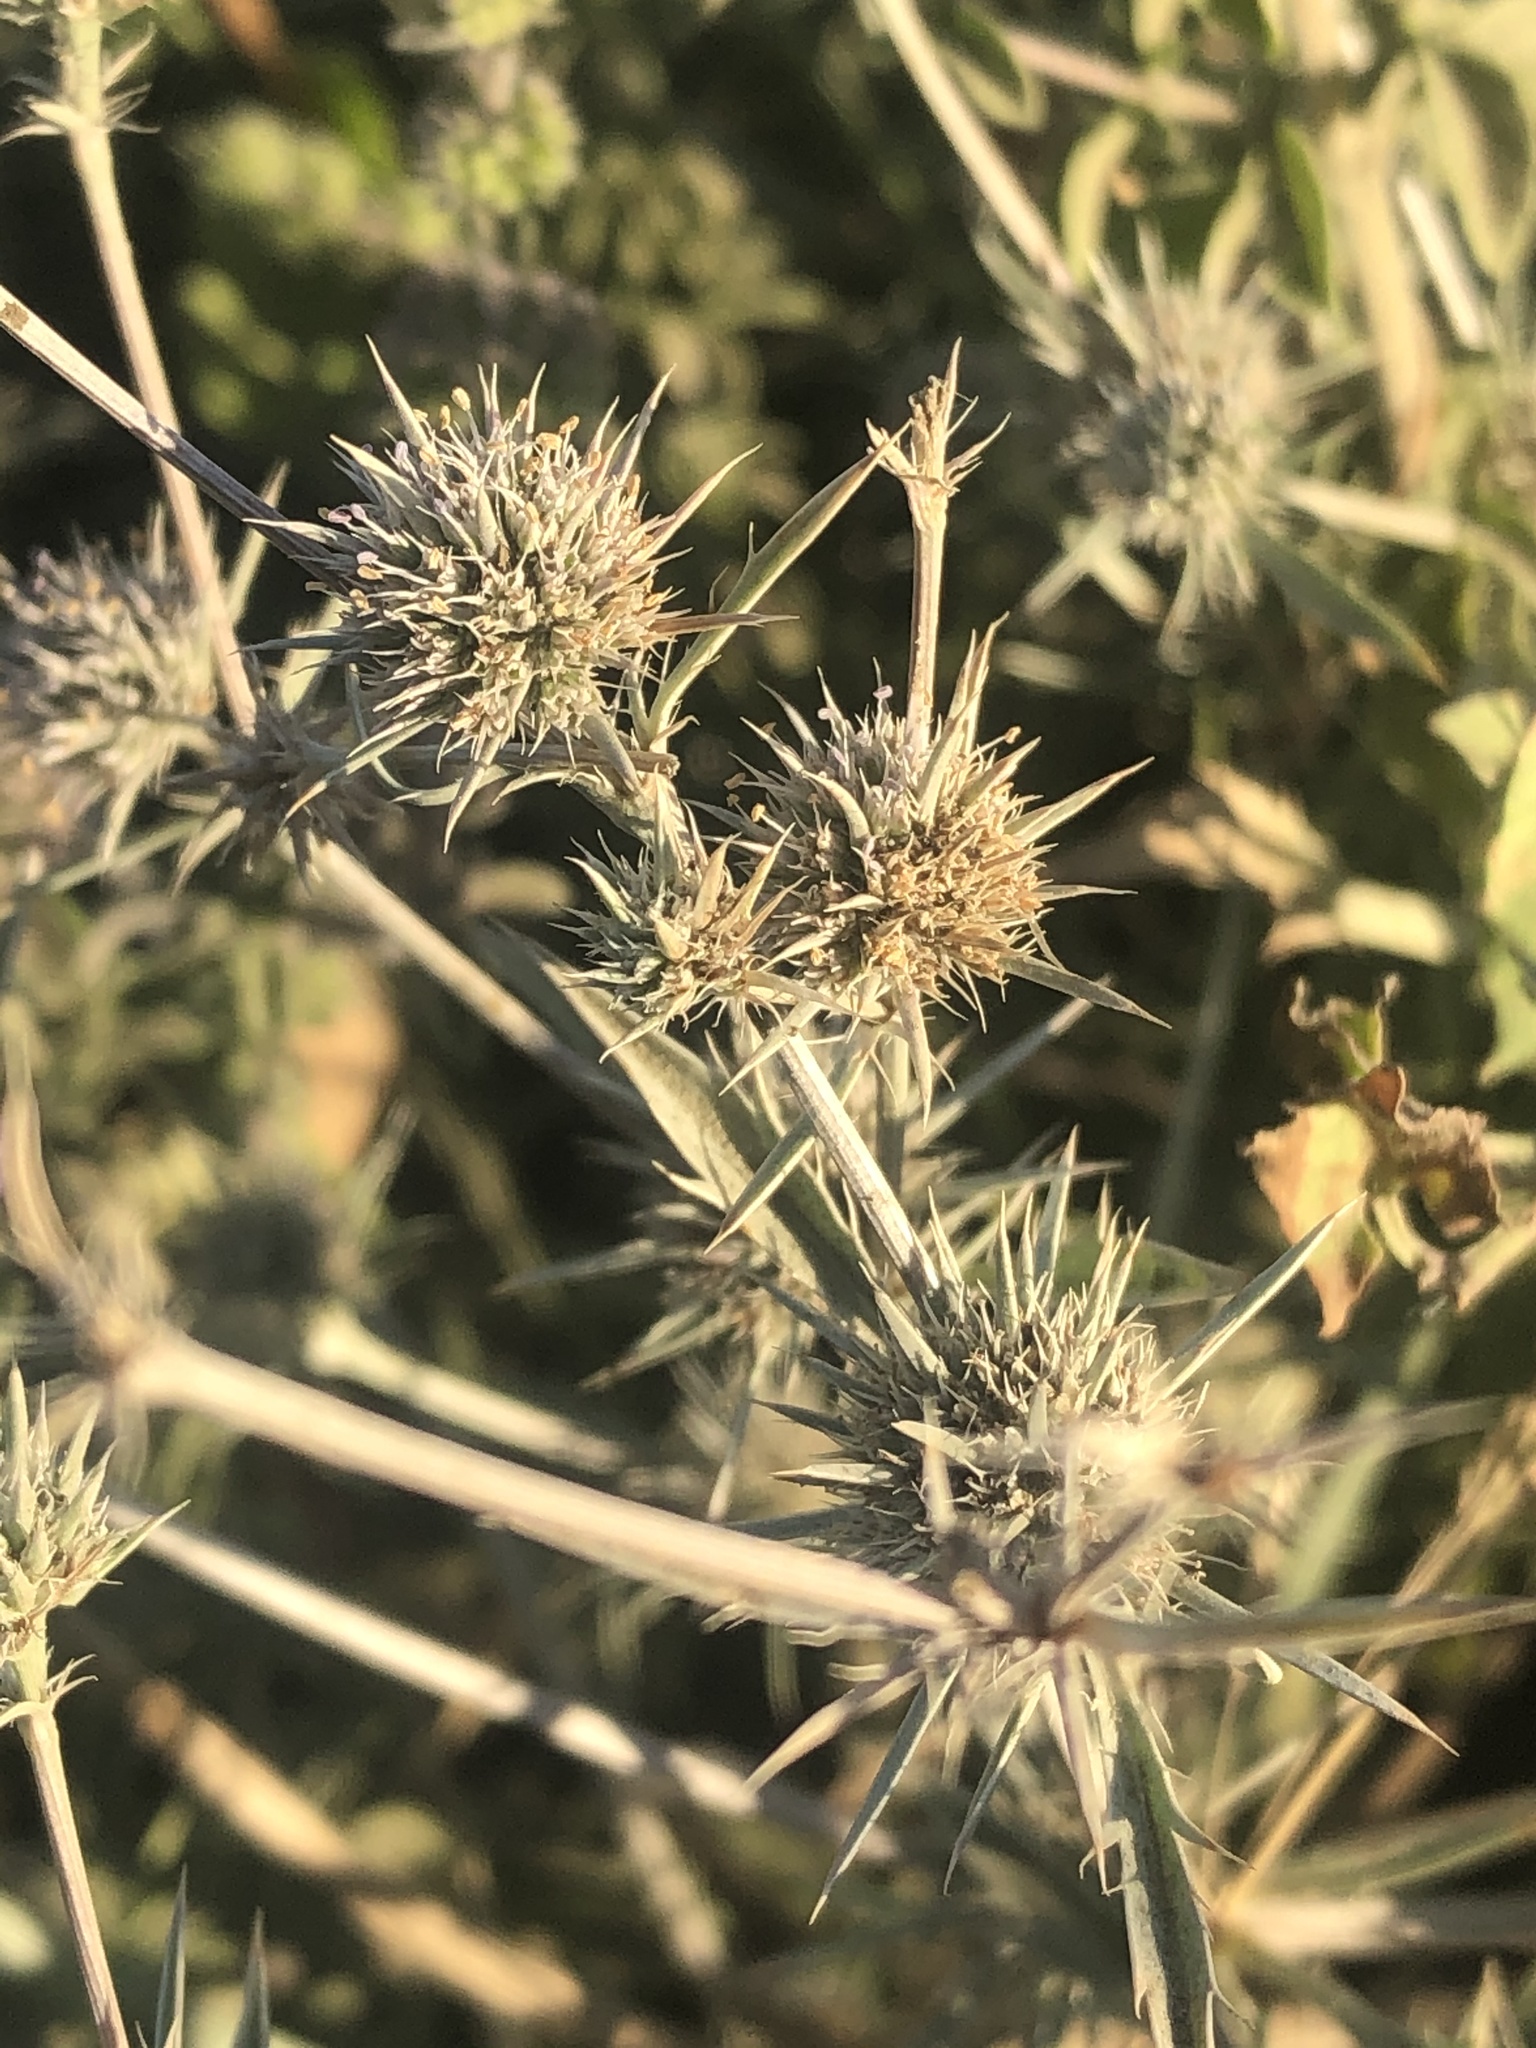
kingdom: Plantae
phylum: Tracheophyta
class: Magnoliopsida
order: Apiales
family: Apiaceae
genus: Eryngium
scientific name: Eryngium petiolatum
